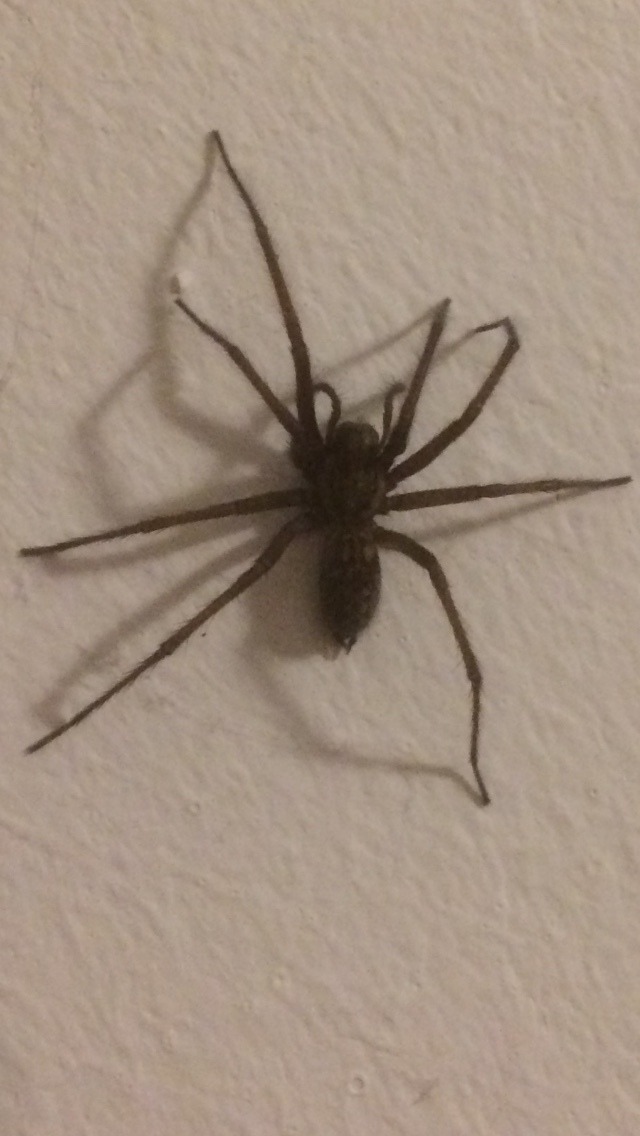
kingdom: Animalia
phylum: Arthropoda
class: Arachnida
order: Araneae
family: Agelenidae
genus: Eratigena
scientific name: Eratigena atrica
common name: Giant house spider
